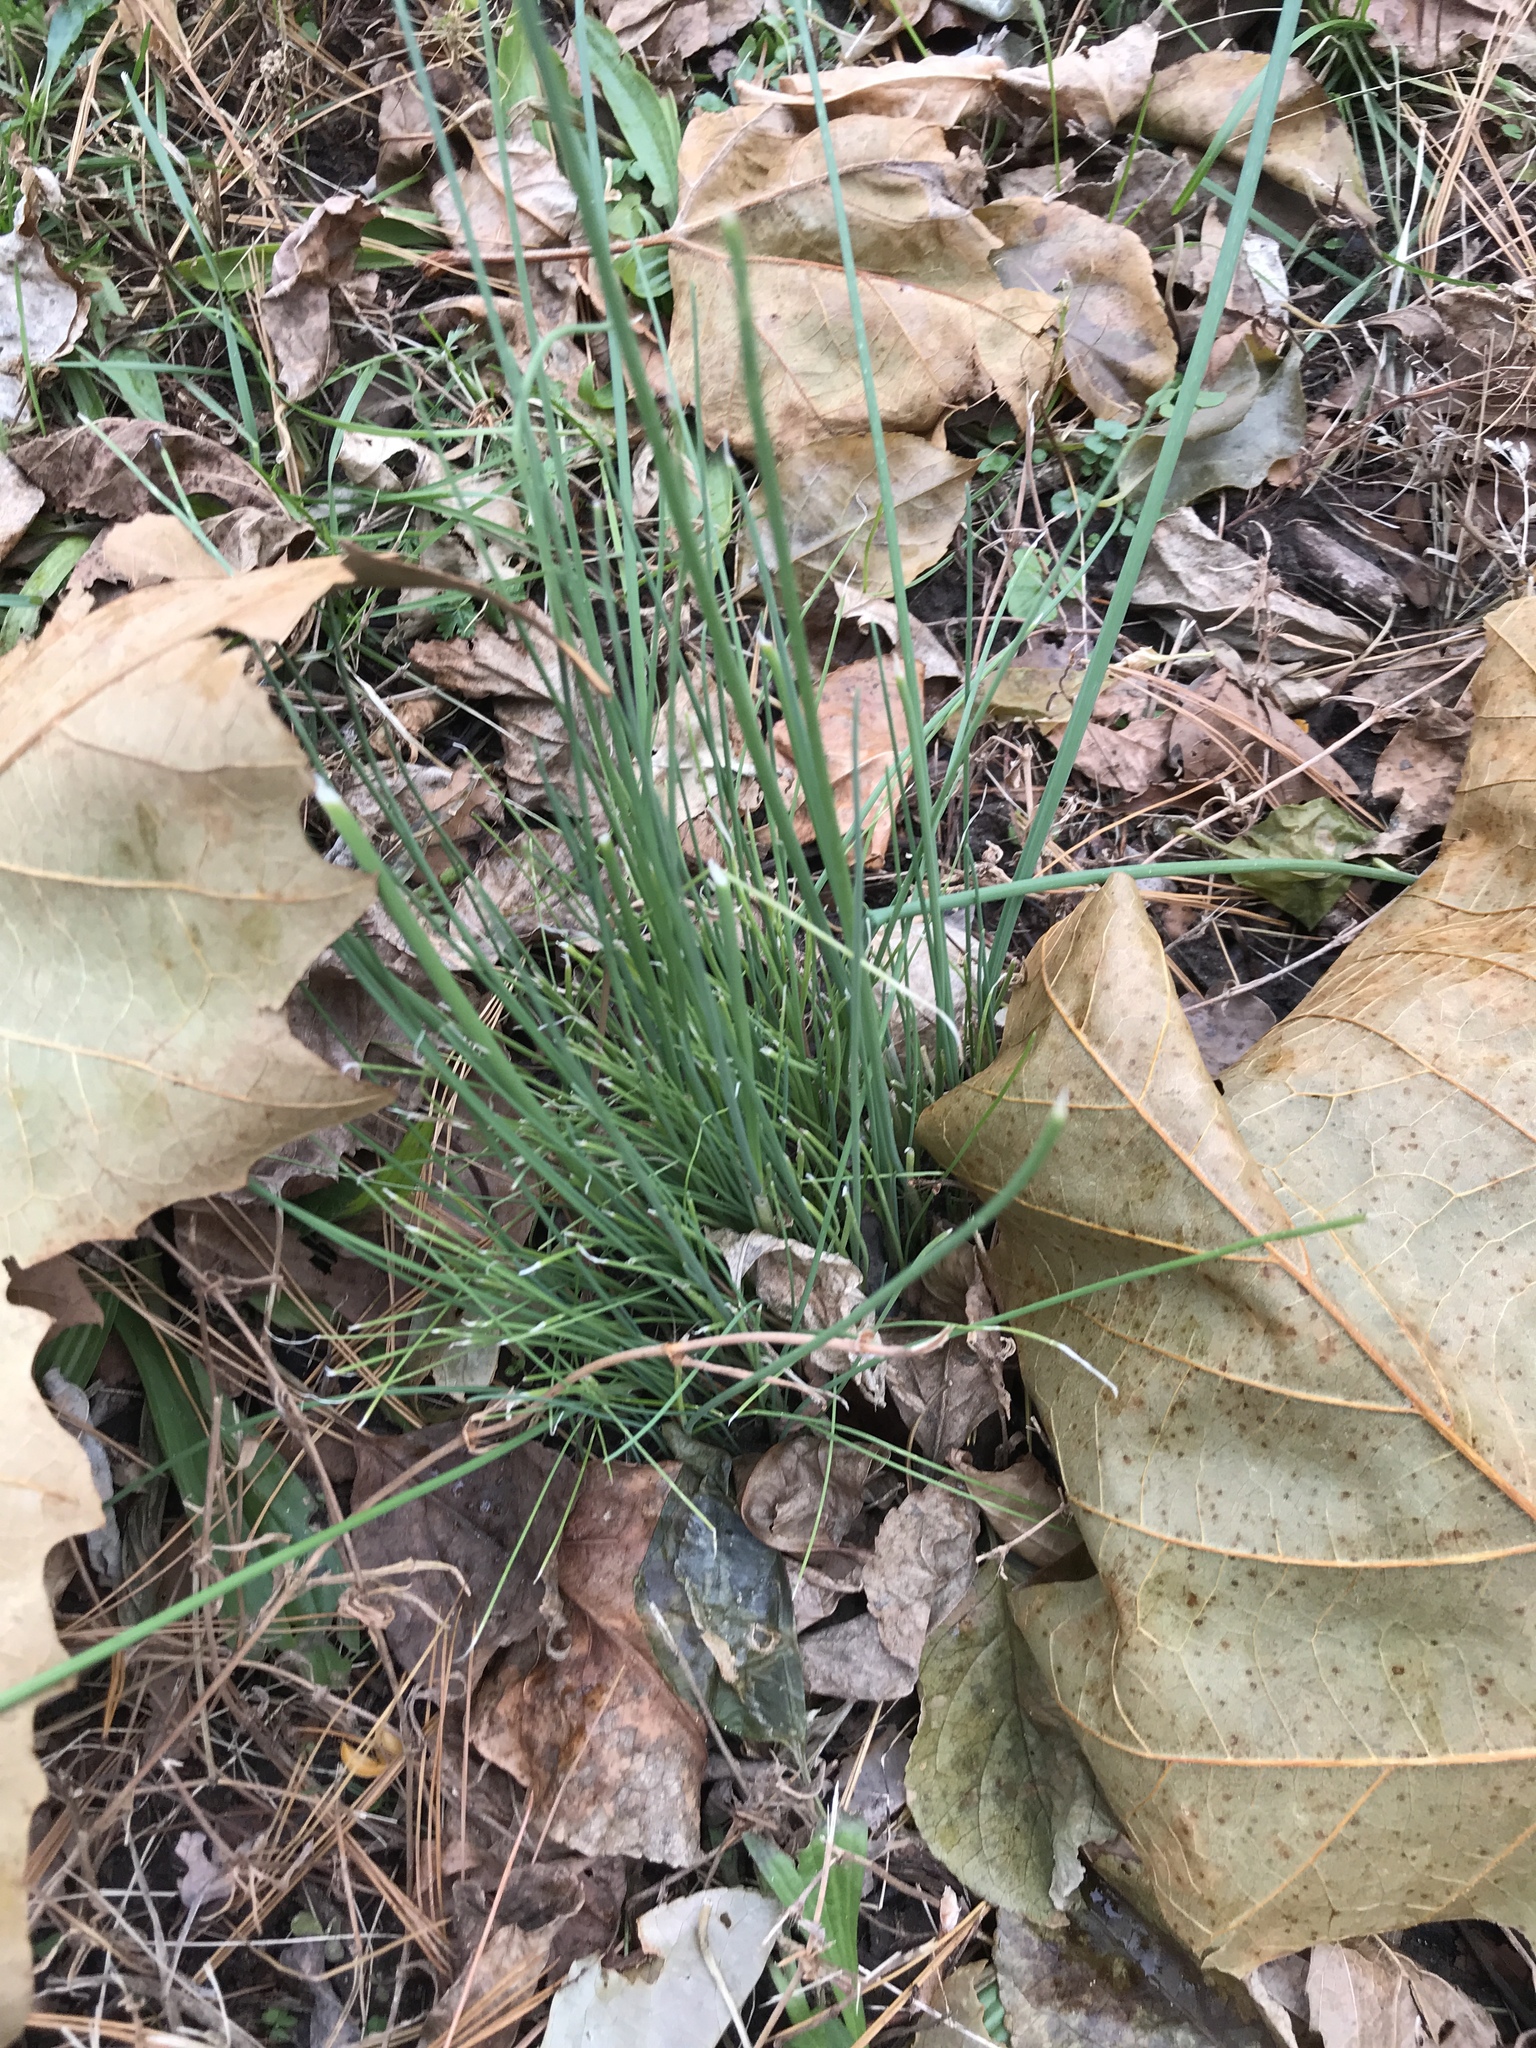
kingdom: Plantae
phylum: Tracheophyta
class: Liliopsida
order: Asparagales
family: Amaryllidaceae
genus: Allium
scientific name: Allium vineale
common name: Crow garlic
